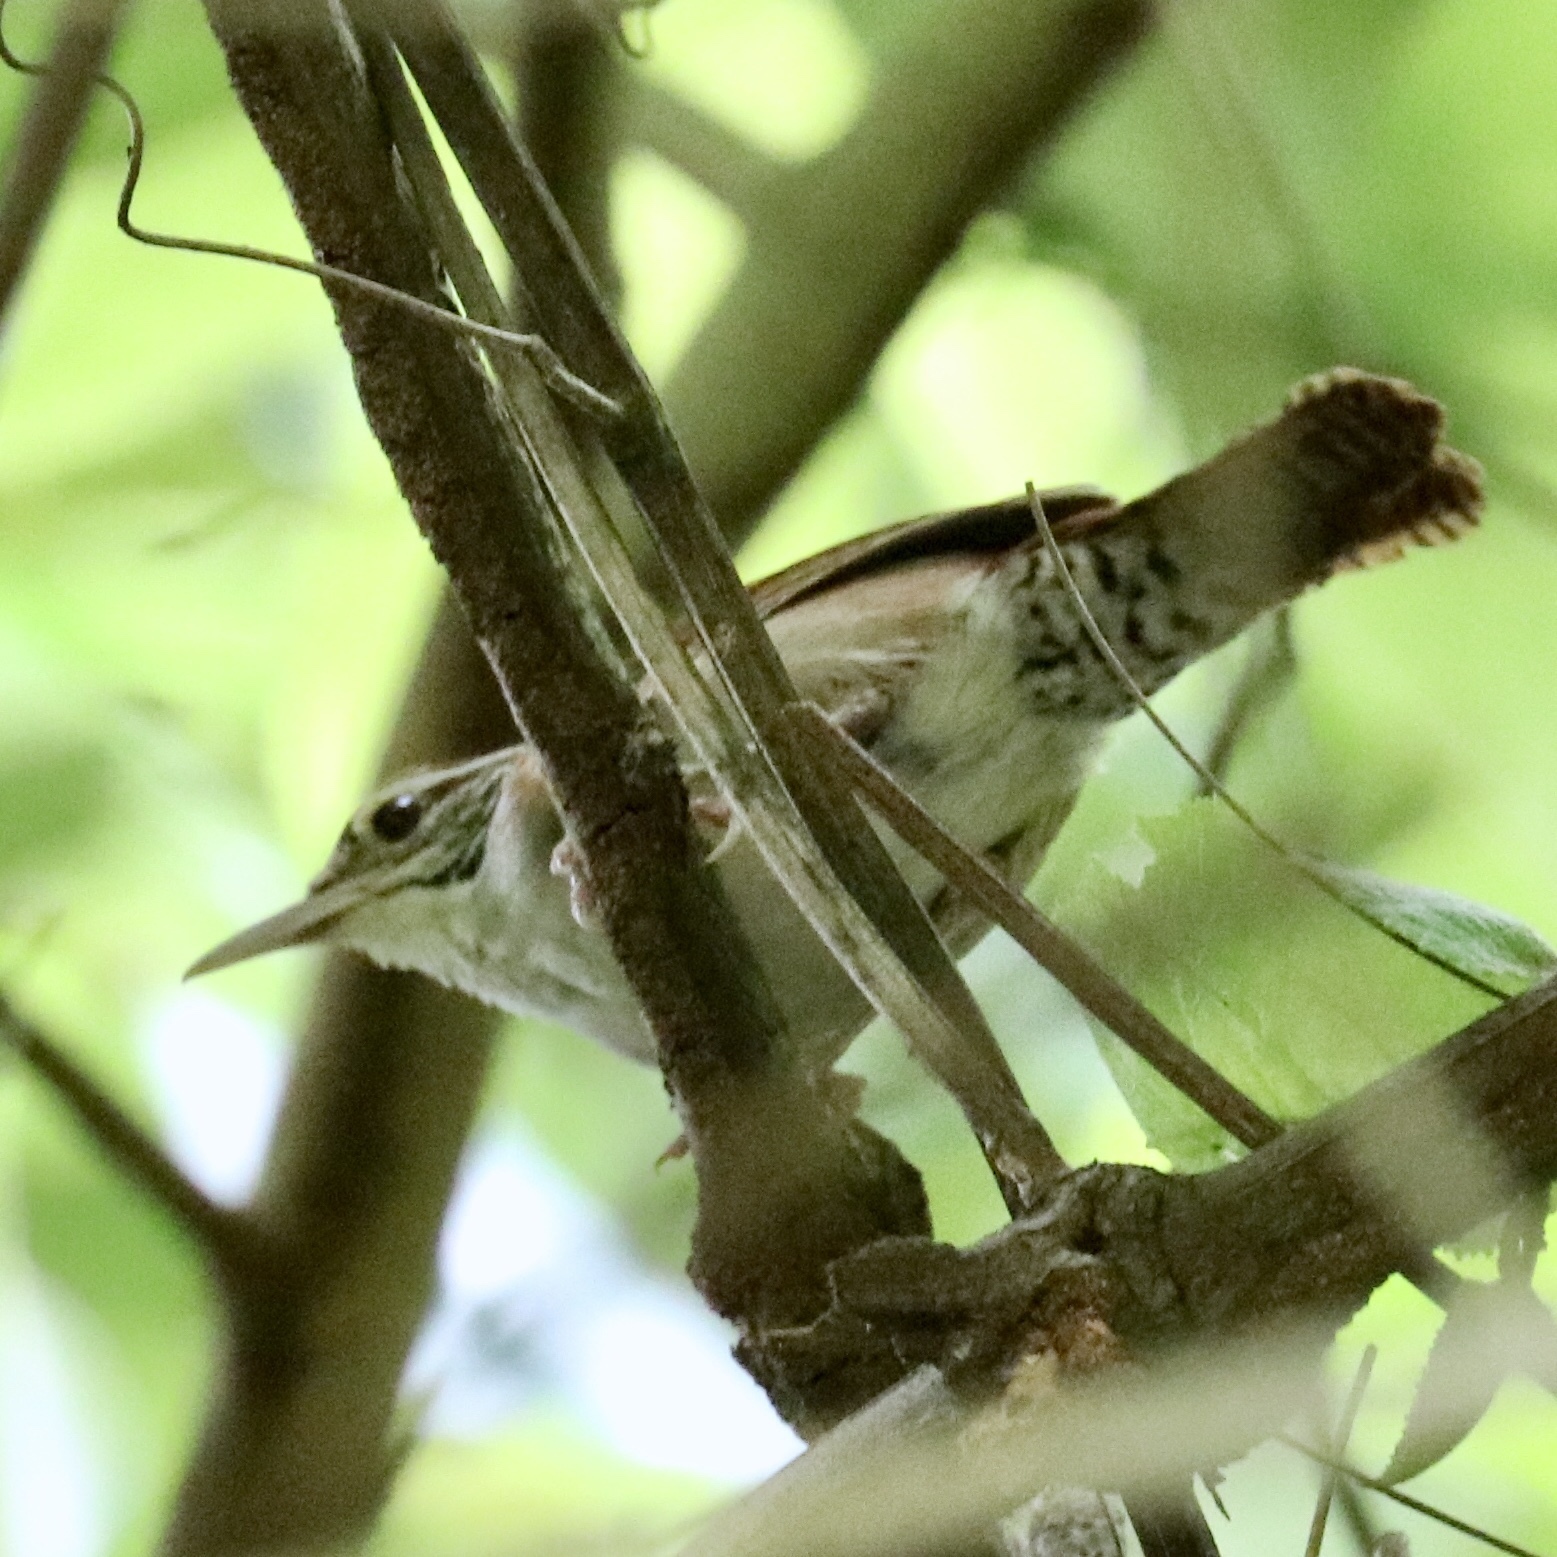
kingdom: Animalia
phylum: Chordata
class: Aves
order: Passeriformes
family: Troglodytidae
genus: Thryophilus
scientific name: Thryophilus rufalbus
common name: Rufous-and-white wren
